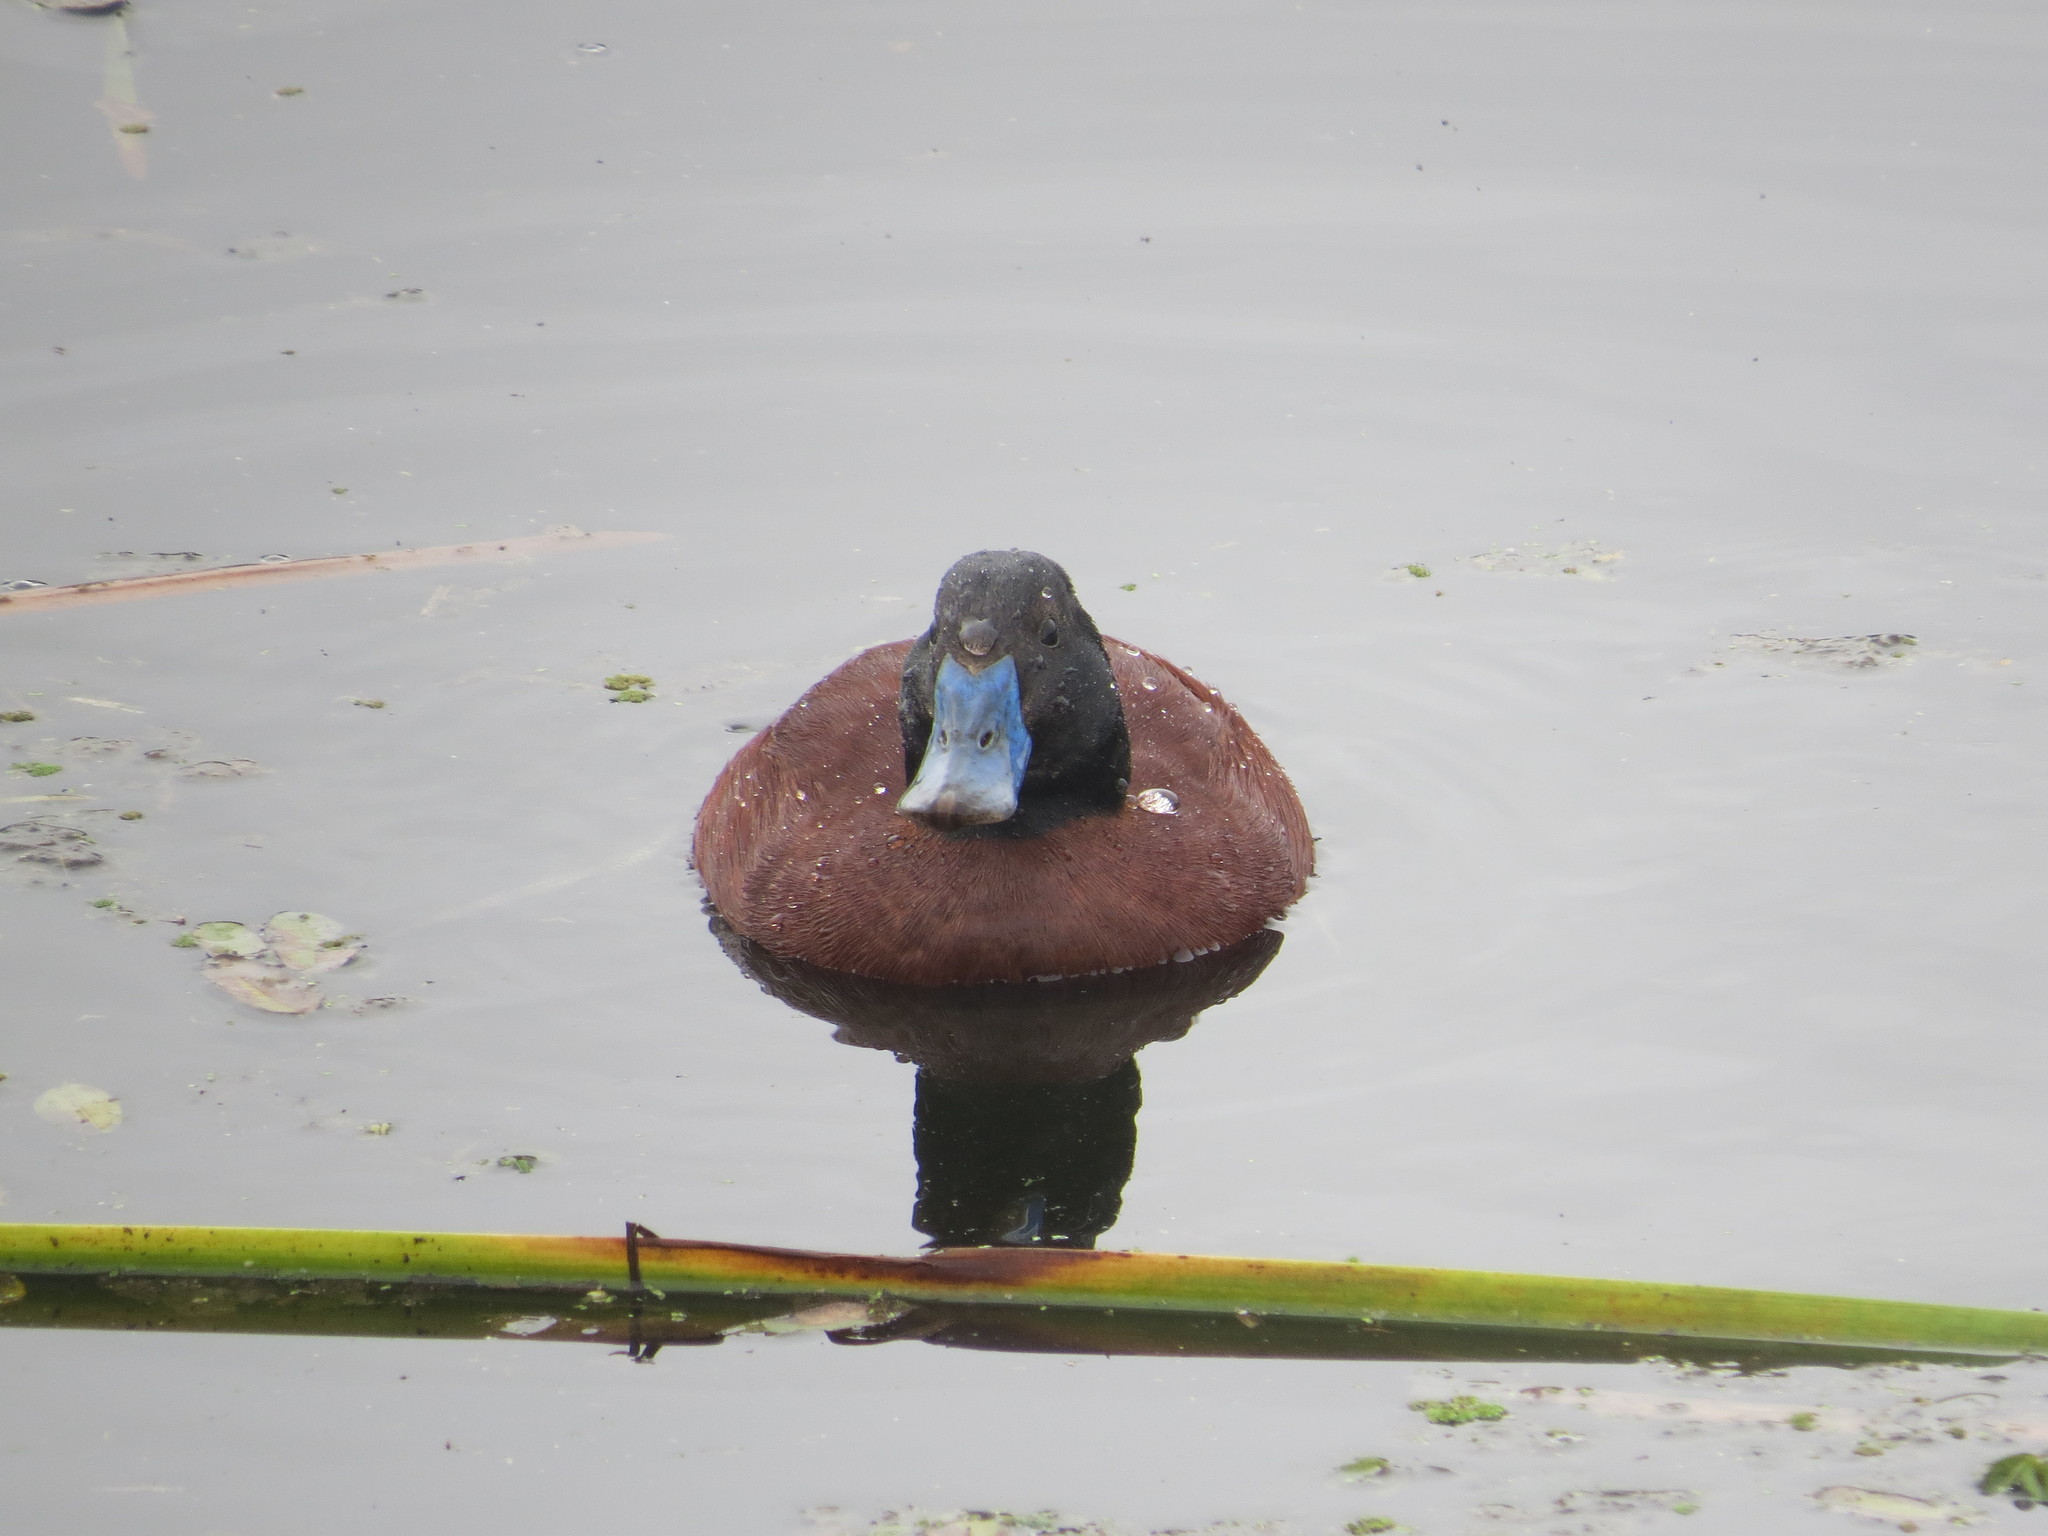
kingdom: Animalia
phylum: Chordata
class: Aves
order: Anseriformes
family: Anatidae
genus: Oxyura
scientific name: Oxyura vittata
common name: Lake duck
